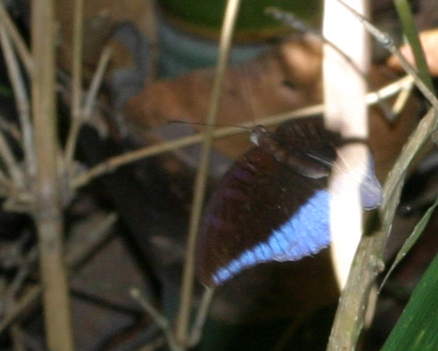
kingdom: Animalia
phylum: Arthropoda
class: Insecta
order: Lepidoptera
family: Nymphalidae
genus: Tanaecia
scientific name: Tanaecia flora
